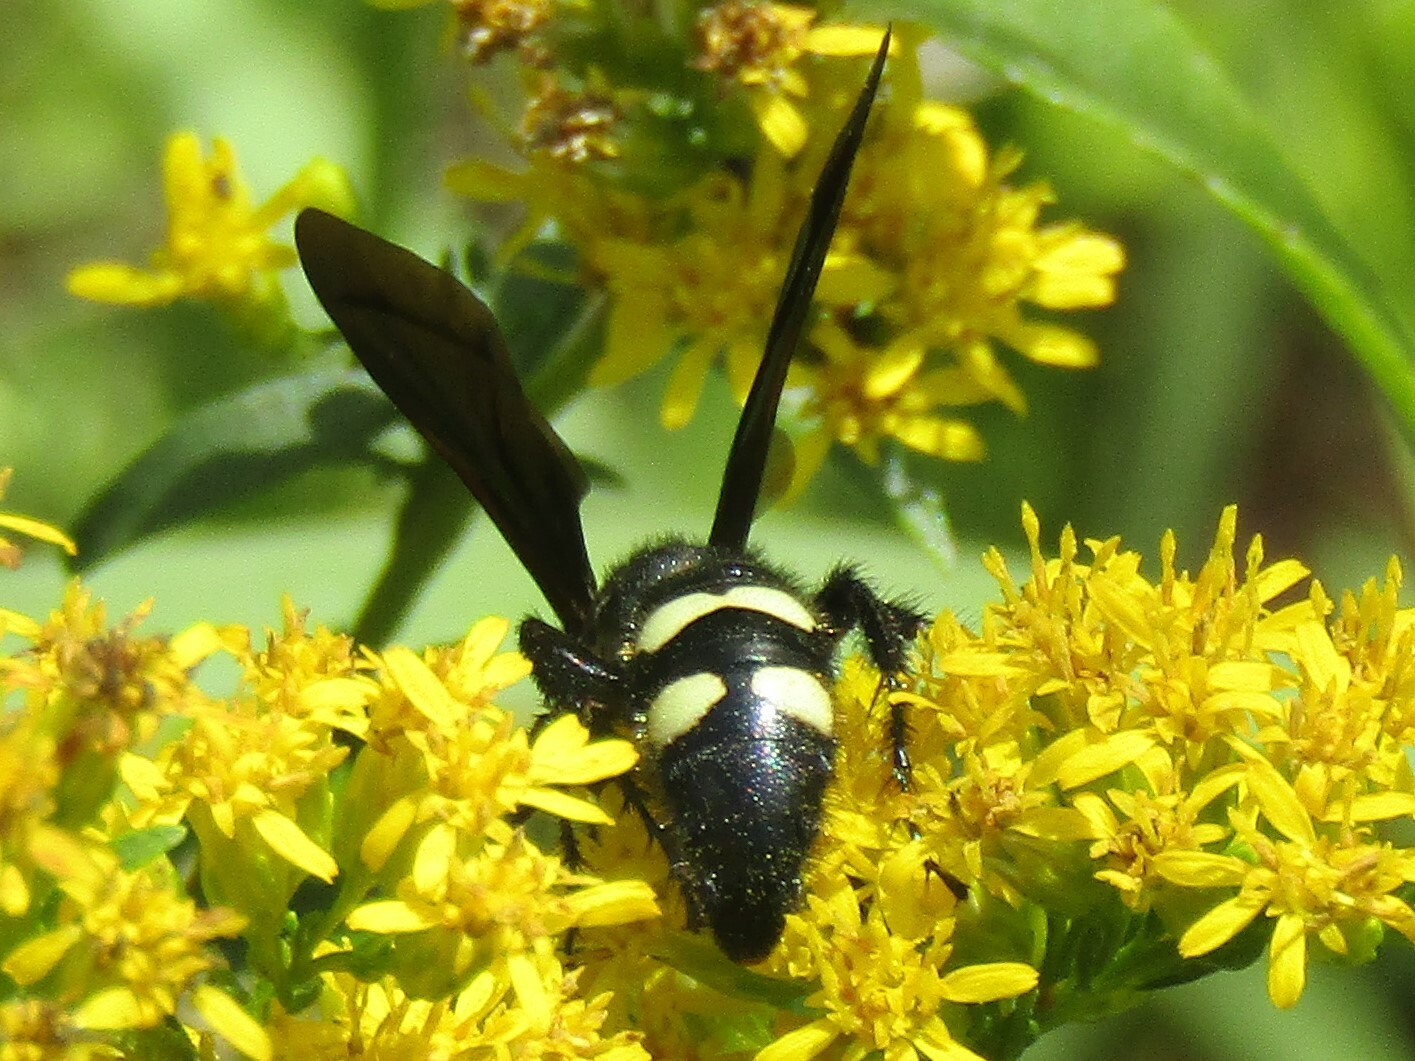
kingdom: Animalia
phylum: Arthropoda
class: Insecta
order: Hymenoptera
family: Scoliidae
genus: Scolia
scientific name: Scolia bicincta
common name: Double-banded scoliid wasp
